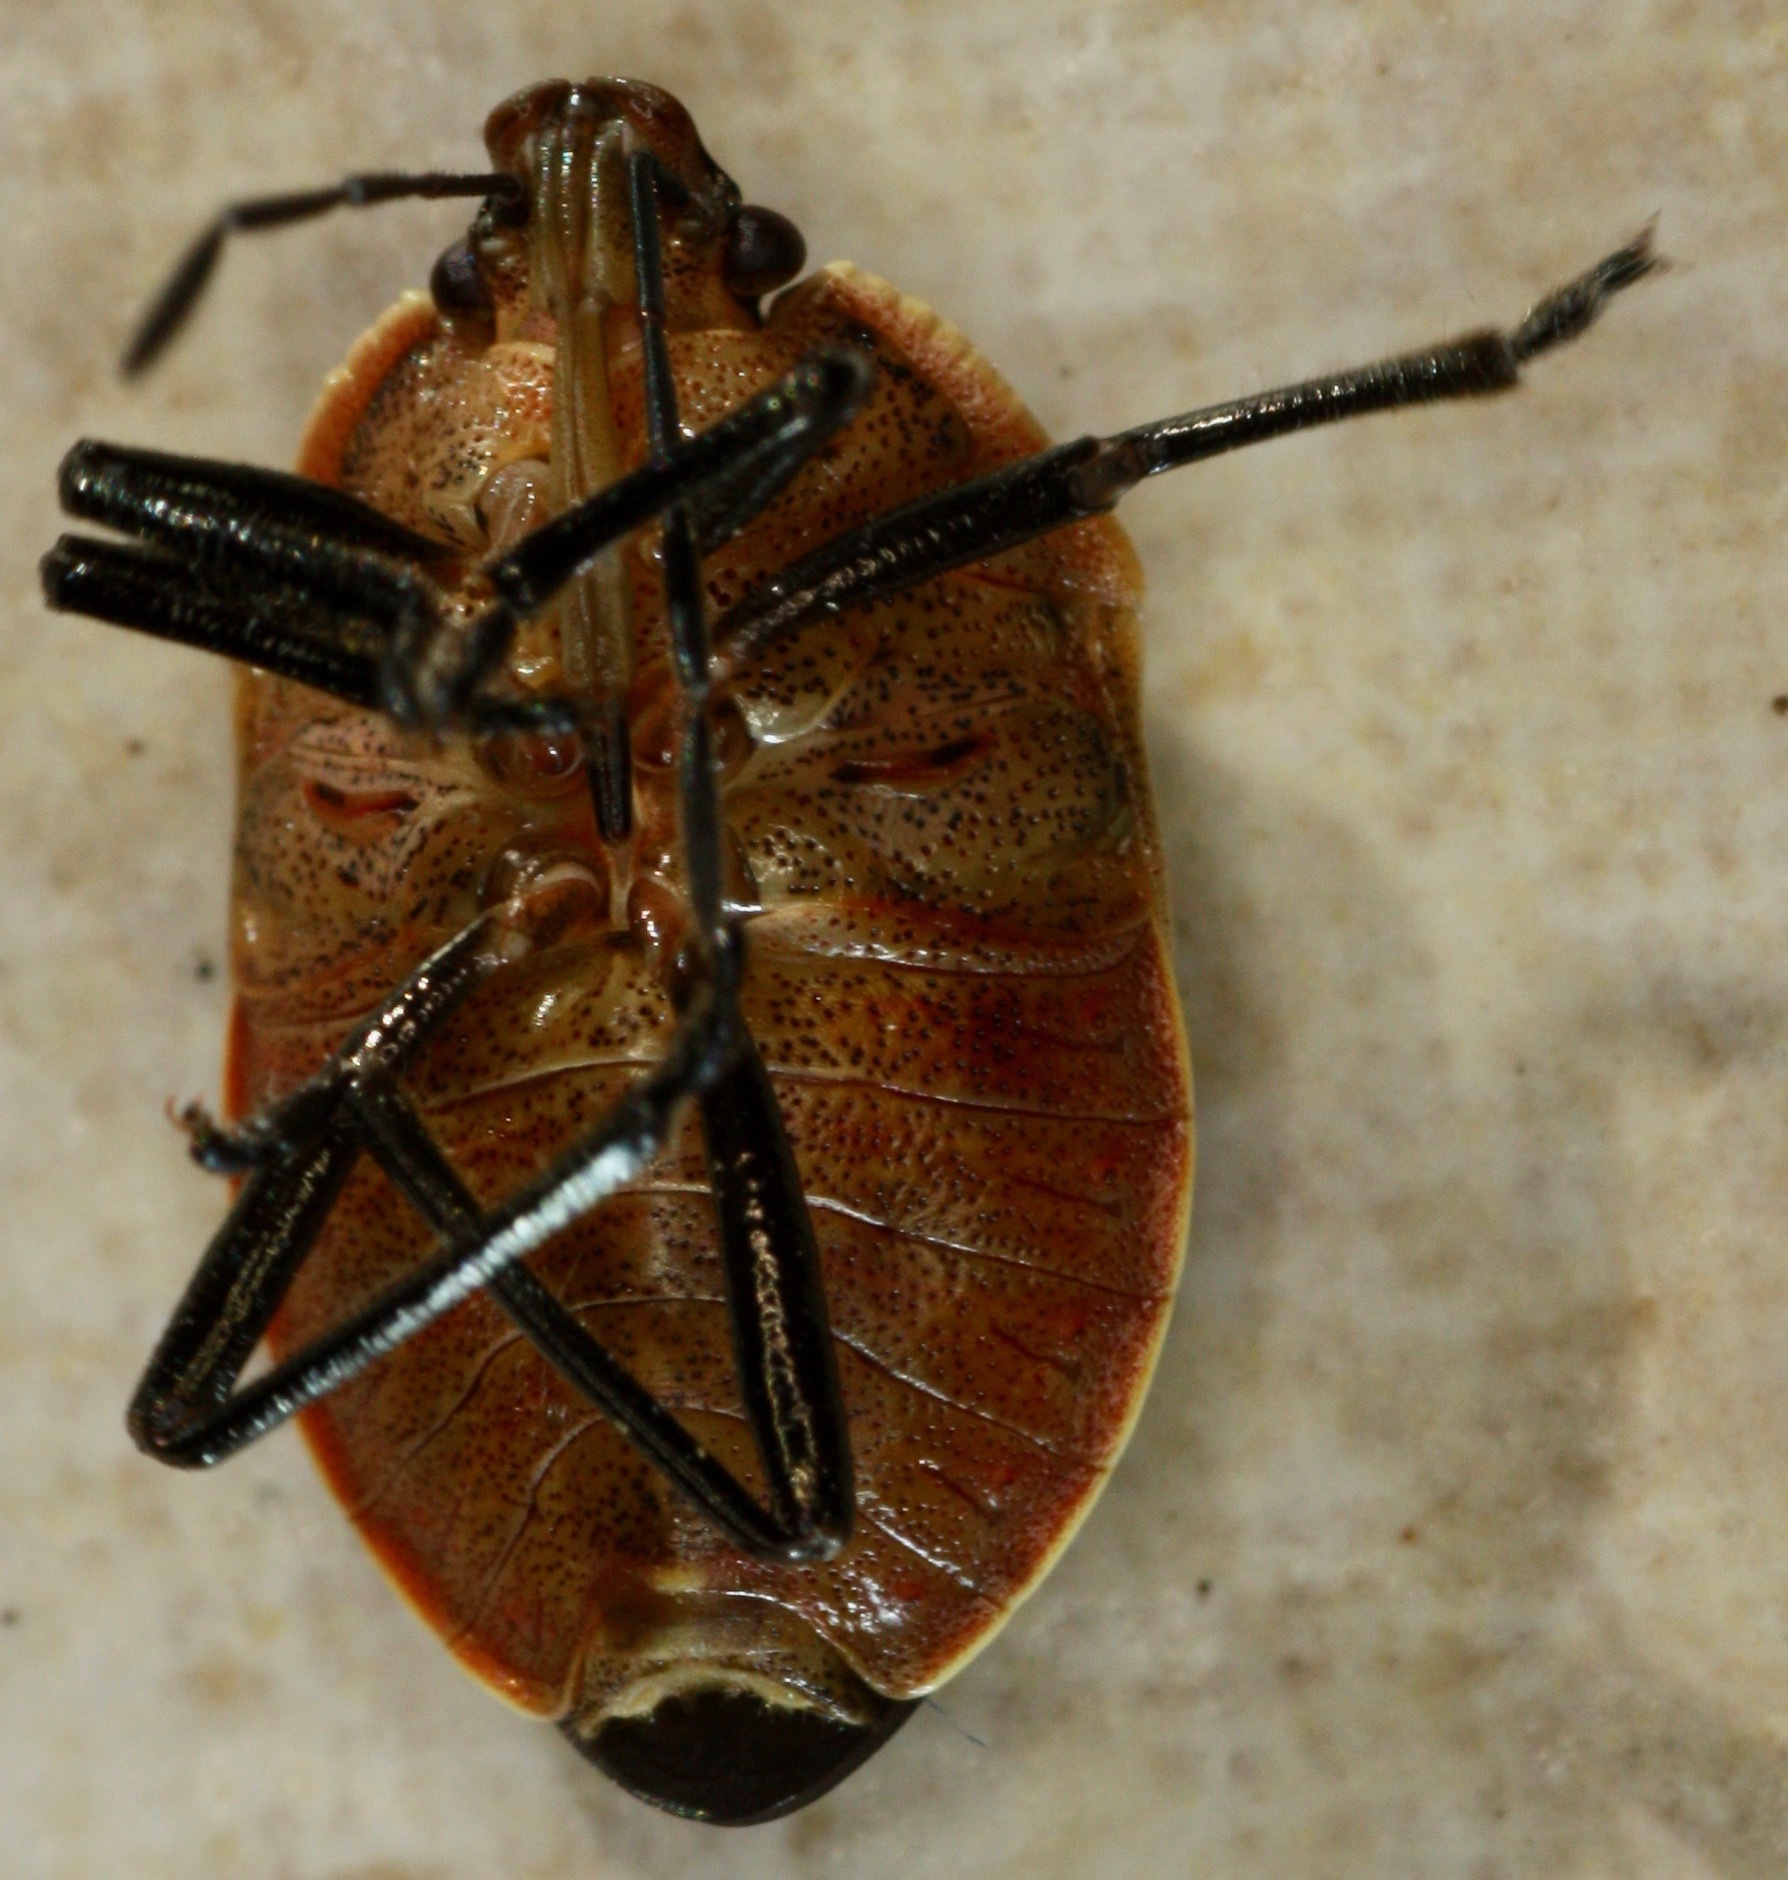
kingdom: Animalia
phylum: Arthropoda
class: Insecta
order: Hemiptera
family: Pentatomidae
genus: Apateticus
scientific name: Apateticus marginiventris
